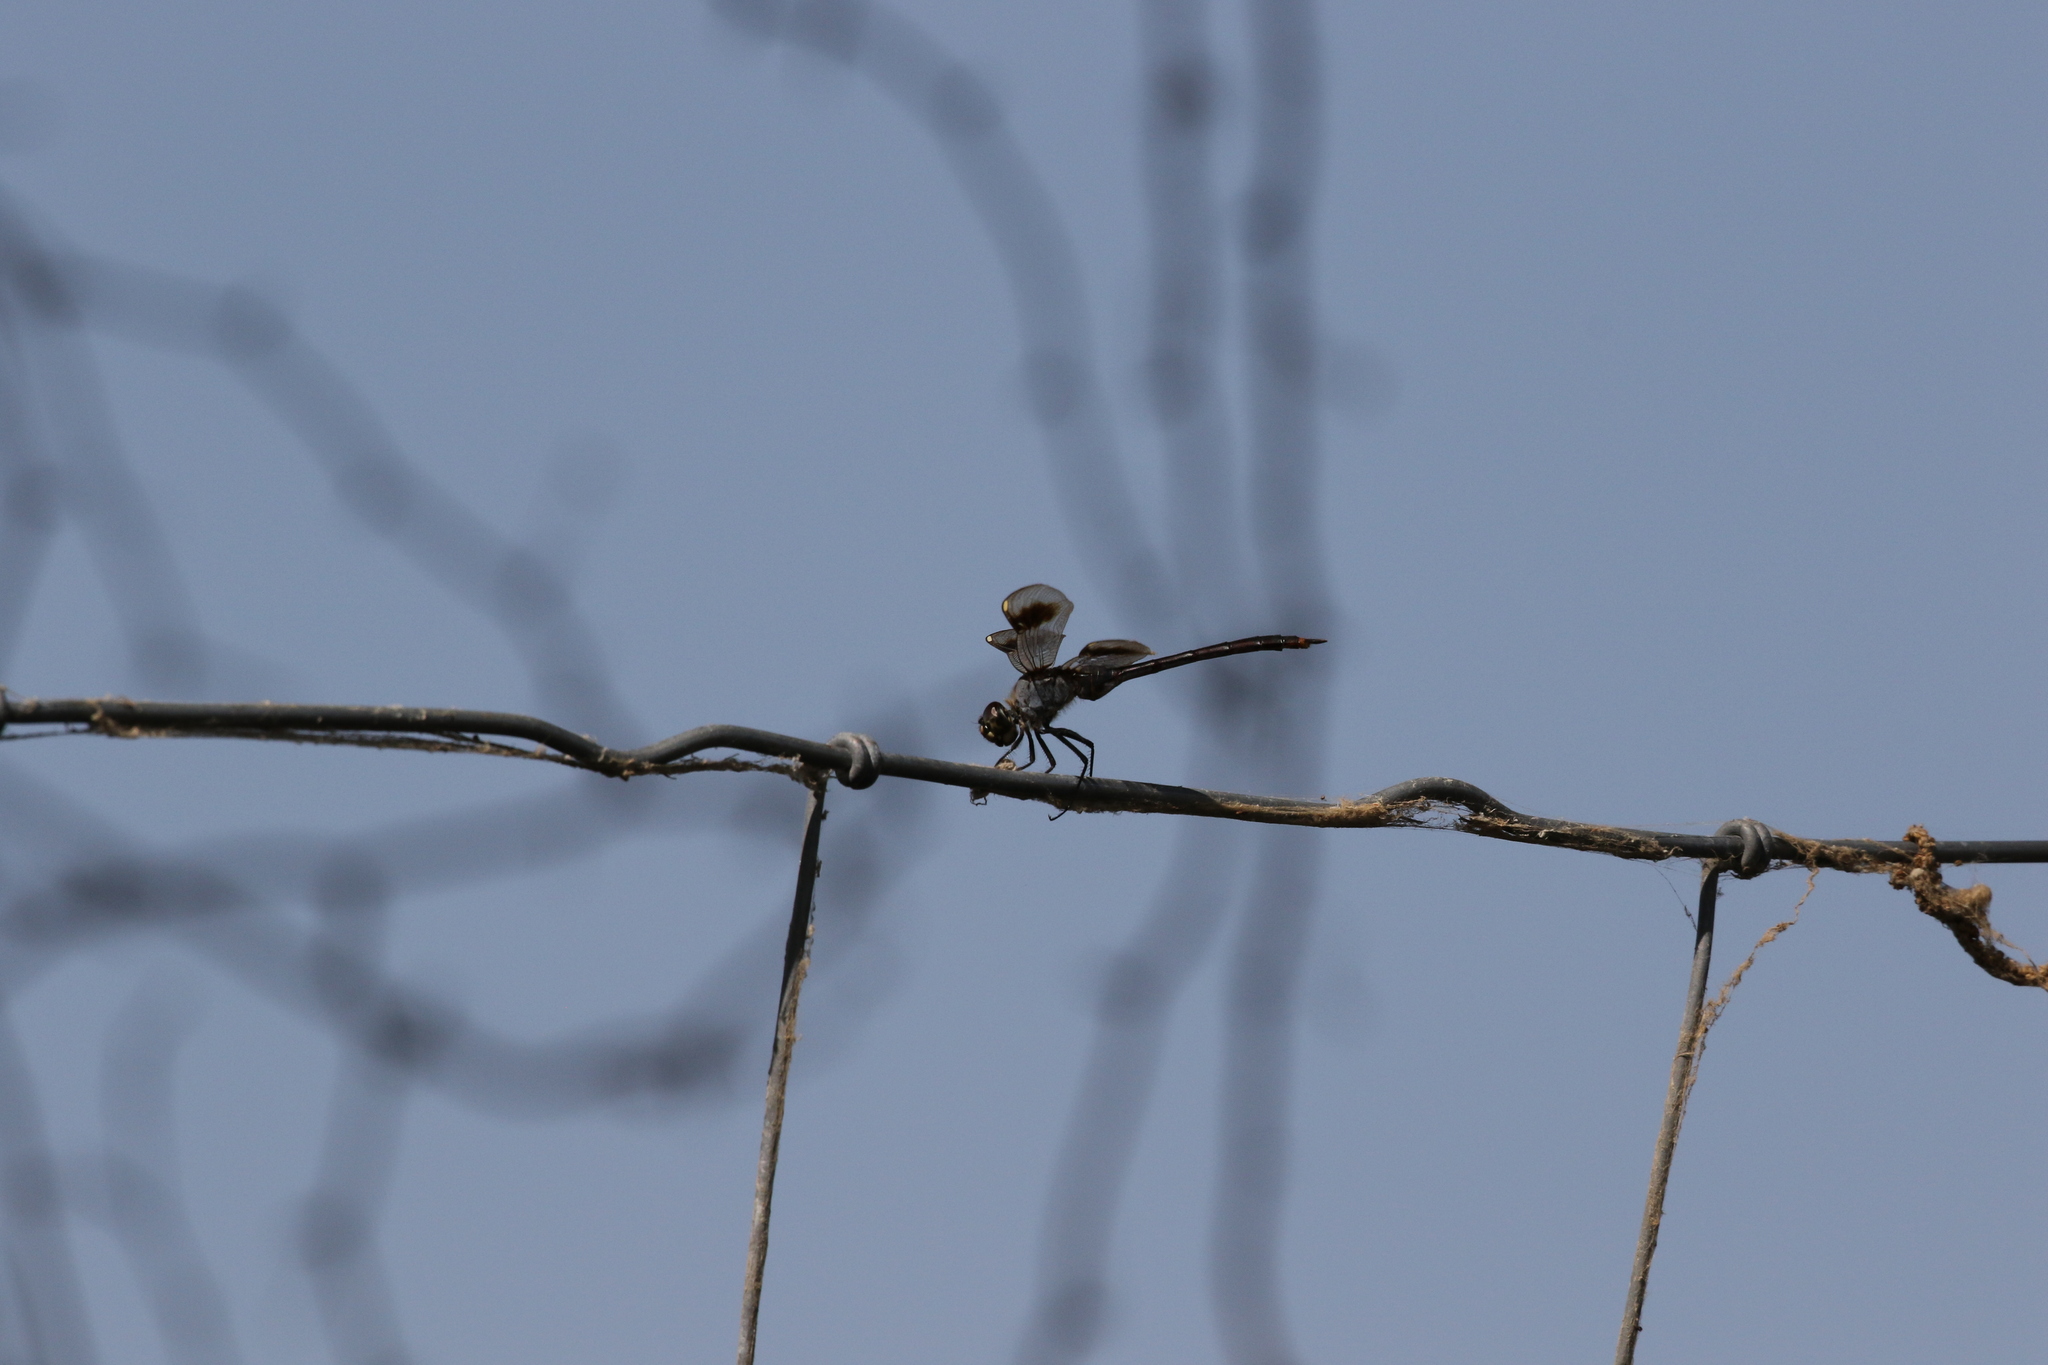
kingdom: Animalia
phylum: Arthropoda
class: Insecta
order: Odonata
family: Libellulidae
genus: Brachymesia
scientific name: Brachymesia gravida
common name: Four-spotted pennant
